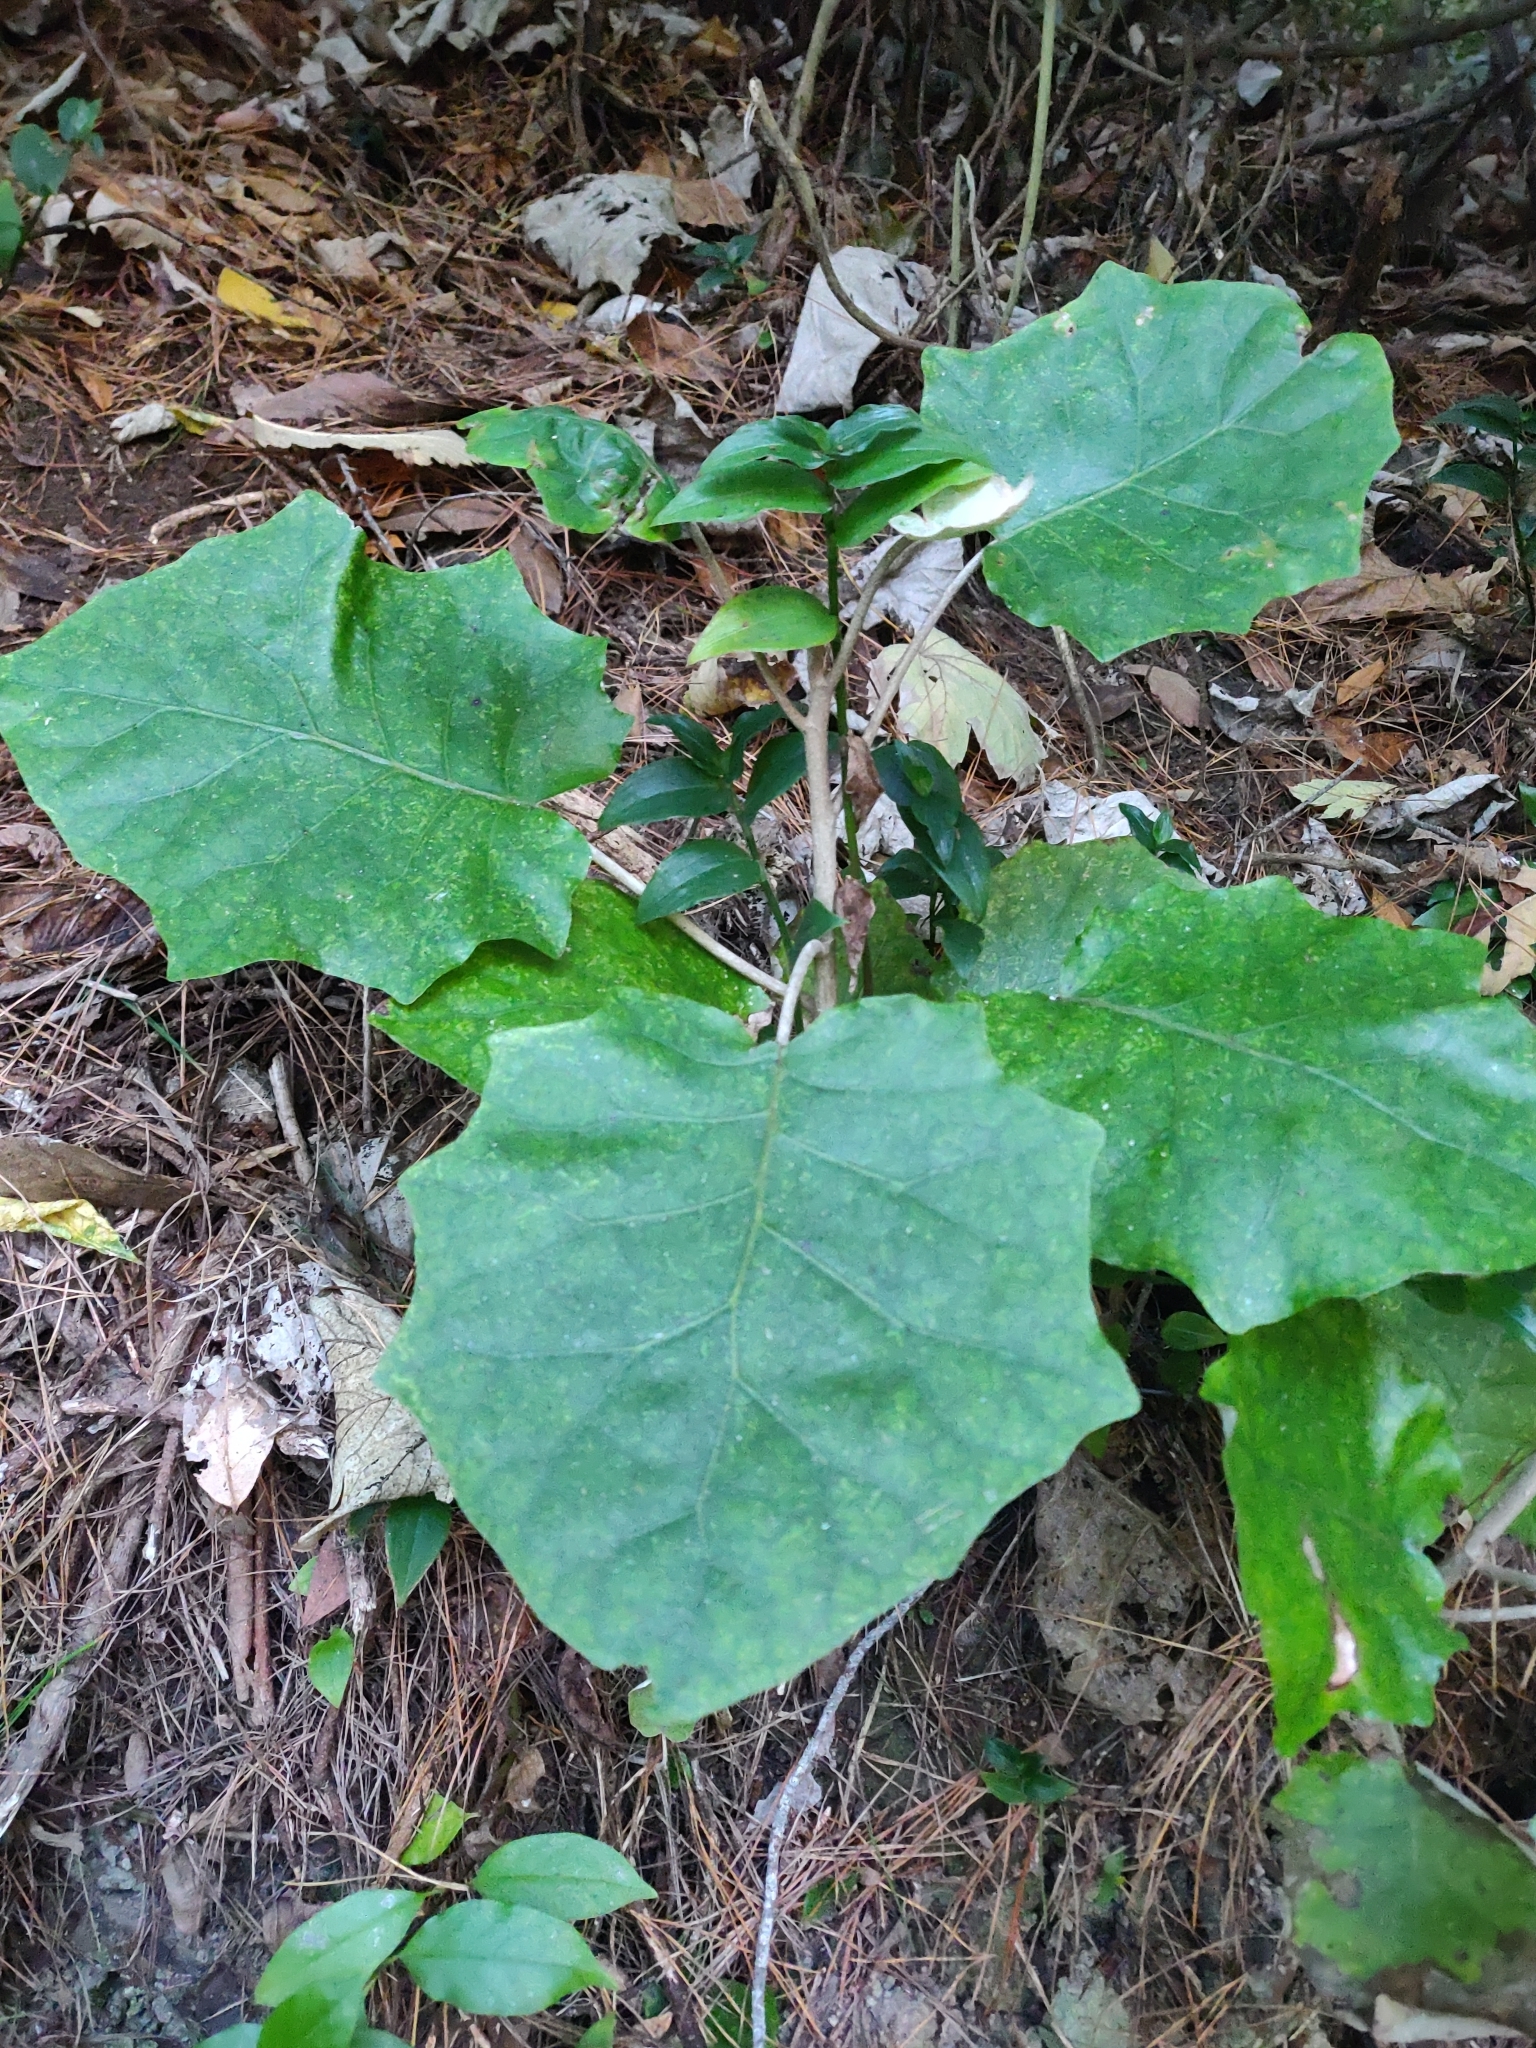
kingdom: Plantae
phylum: Tracheophyta
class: Magnoliopsida
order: Asterales
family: Asteraceae
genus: Brachyglottis
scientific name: Brachyglottis repanda
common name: Hedge ragwort
